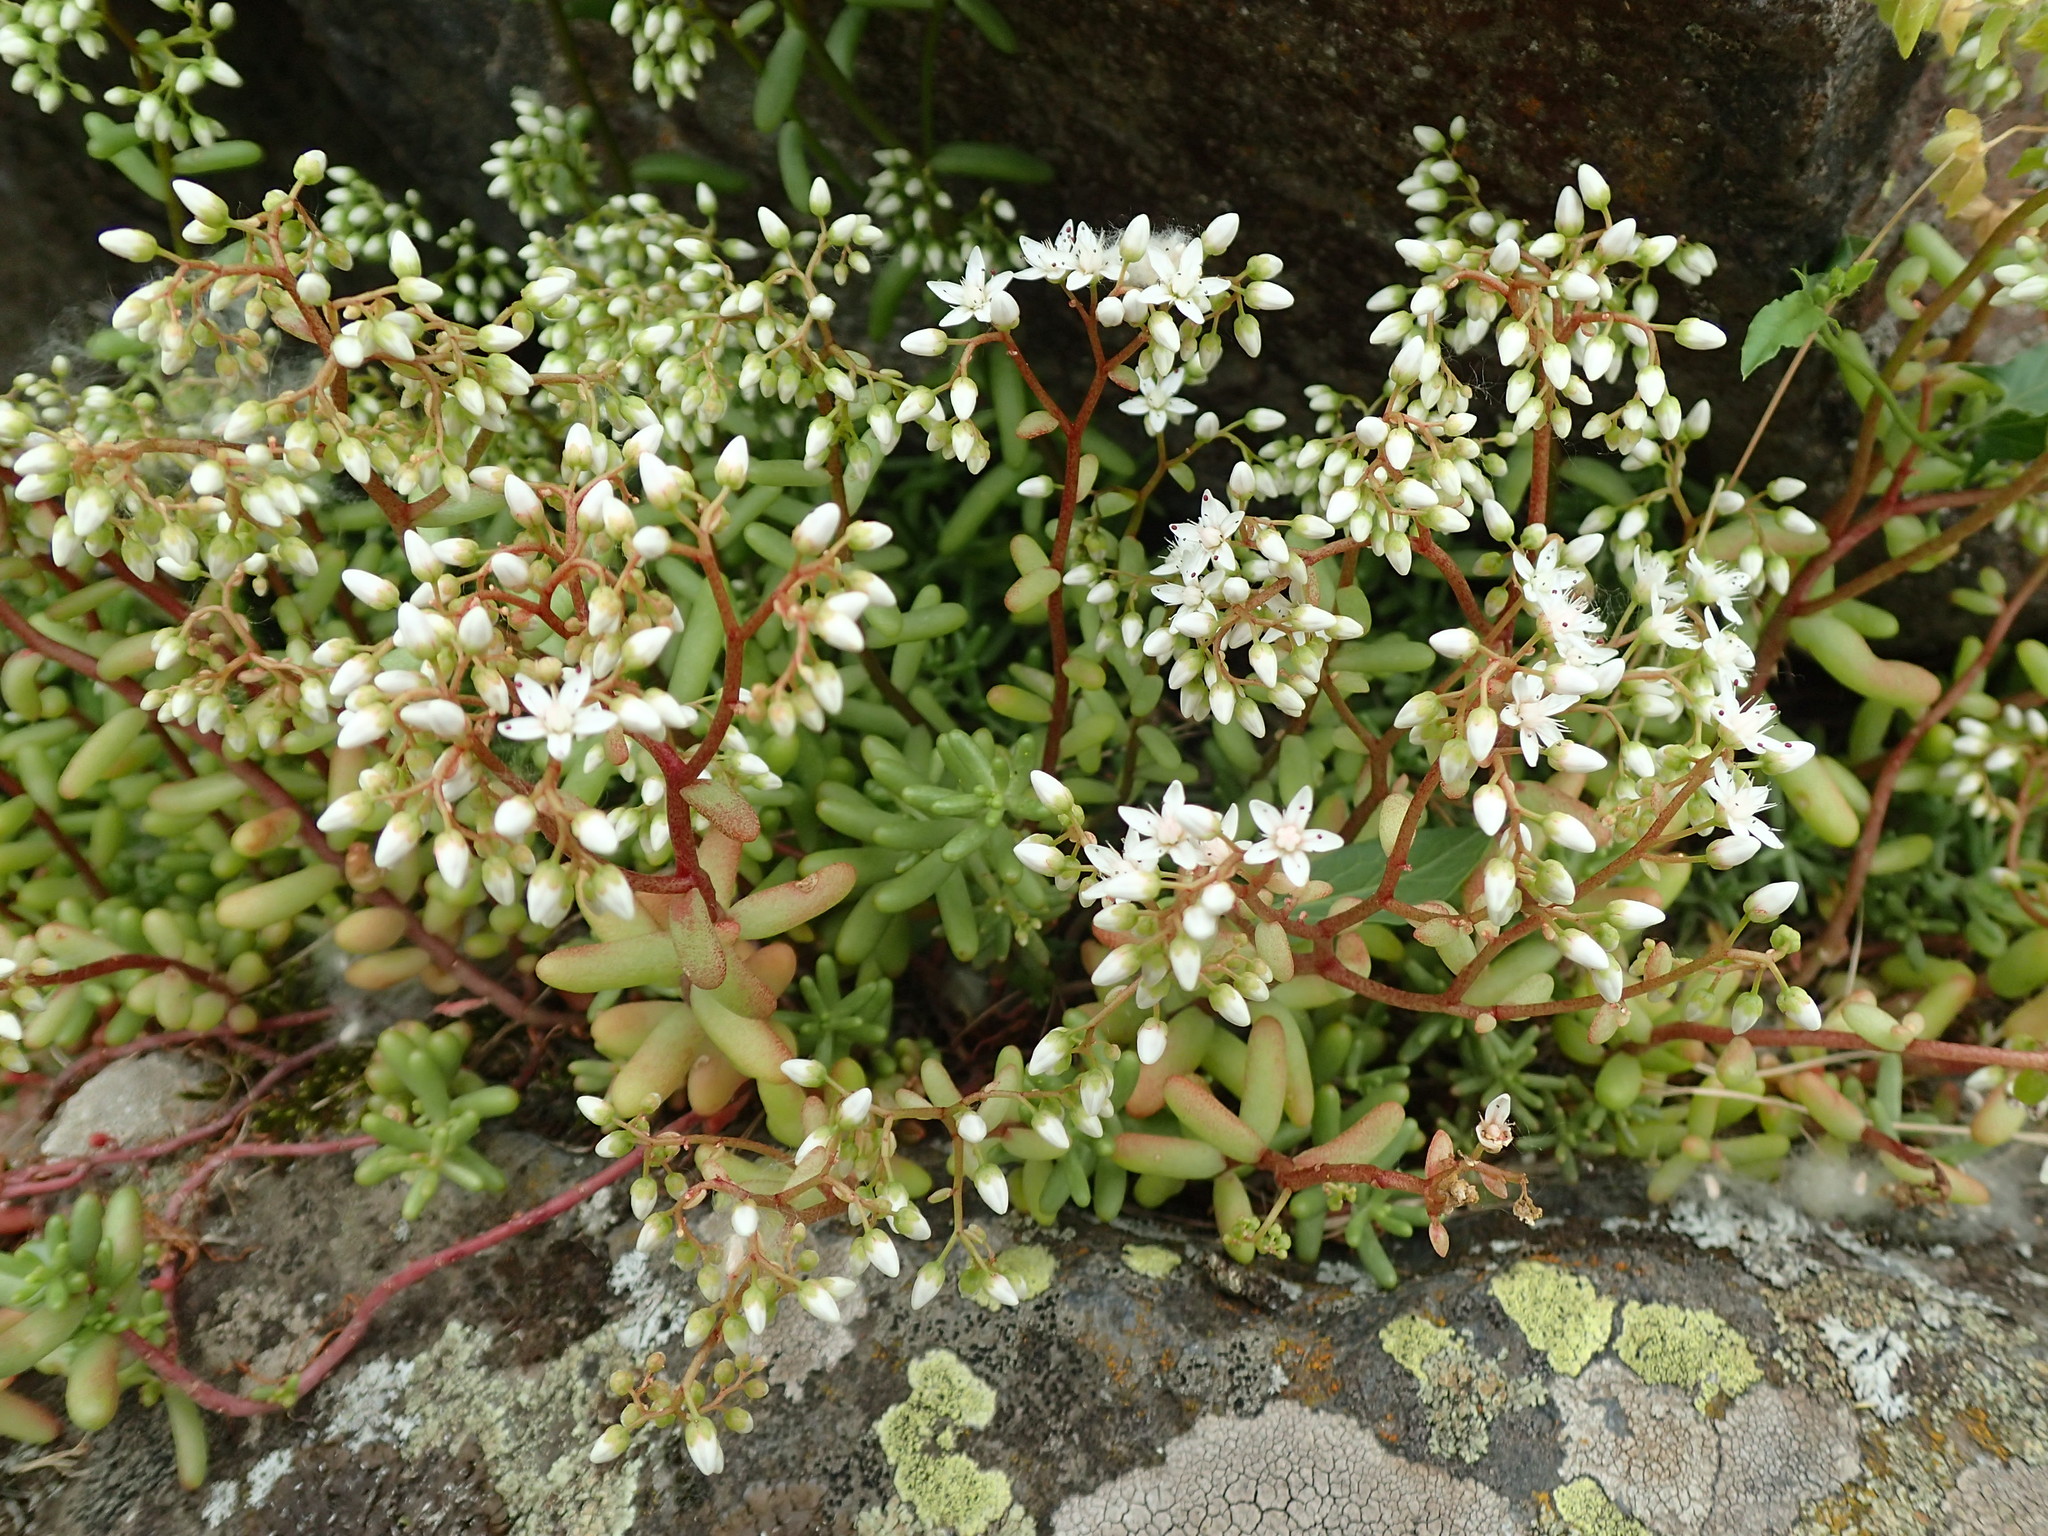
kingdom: Plantae
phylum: Tracheophyta
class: Magnoliopsida
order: Saxifragales
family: Crassulaceae
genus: Sedum
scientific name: Sedum album
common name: White stonecrop
